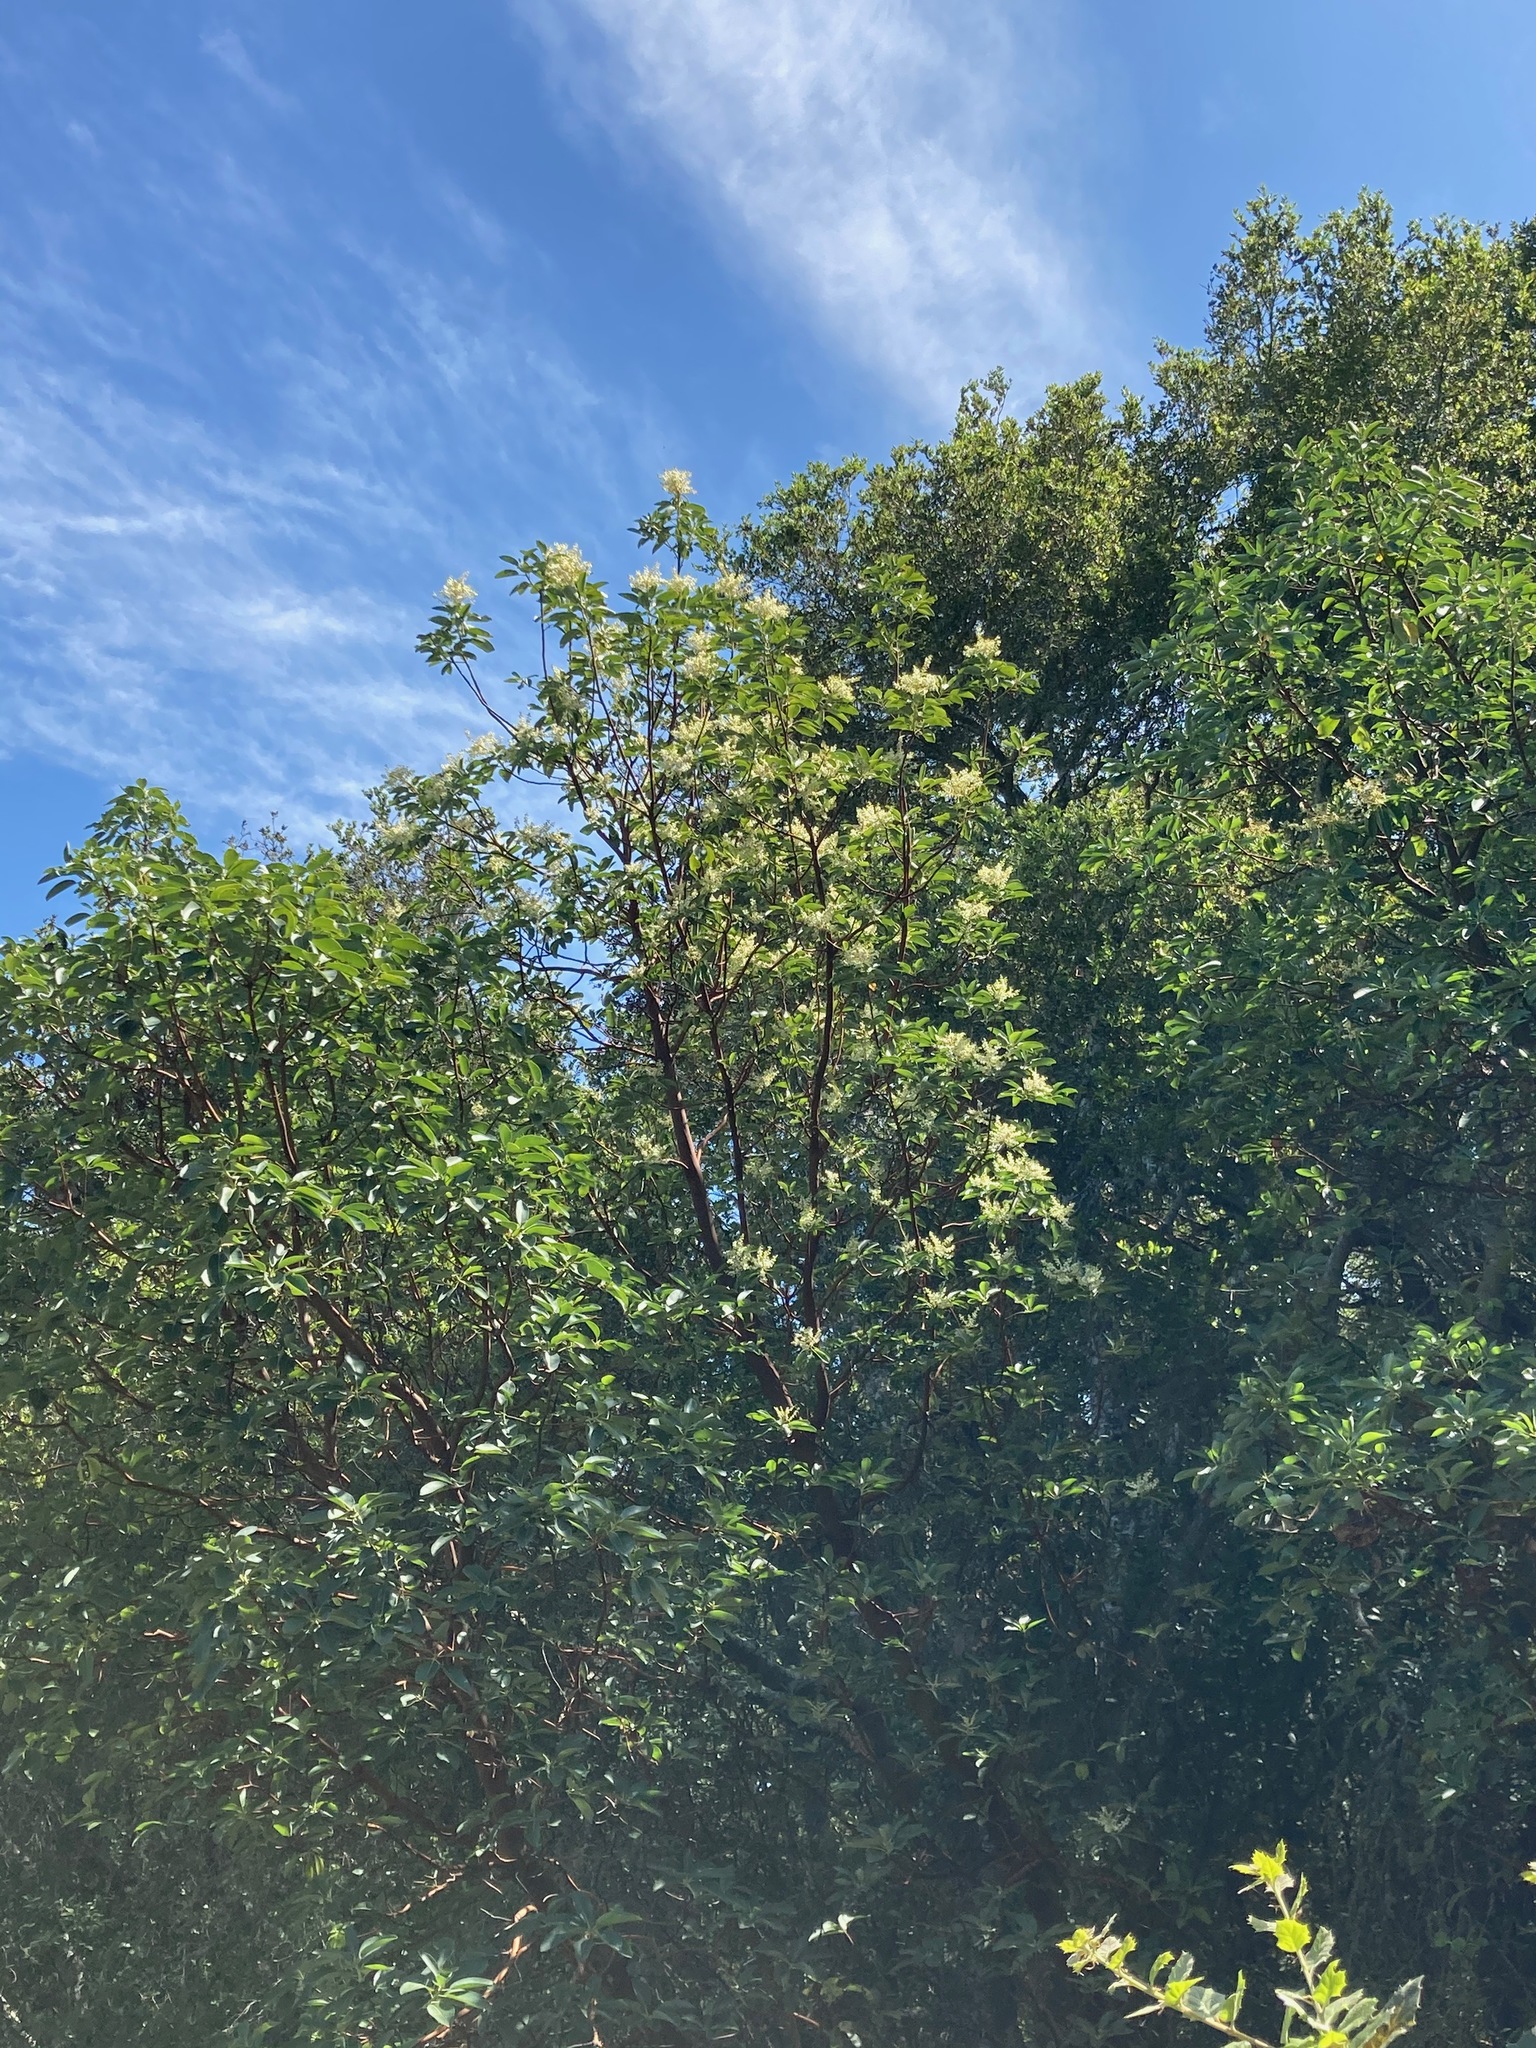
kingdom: Plantae
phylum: Tracheophyta
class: Magnoliopsida
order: Ericales
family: Ericaceae
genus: Arbutus
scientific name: Arbutus menziesii
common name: Pacific madrone
